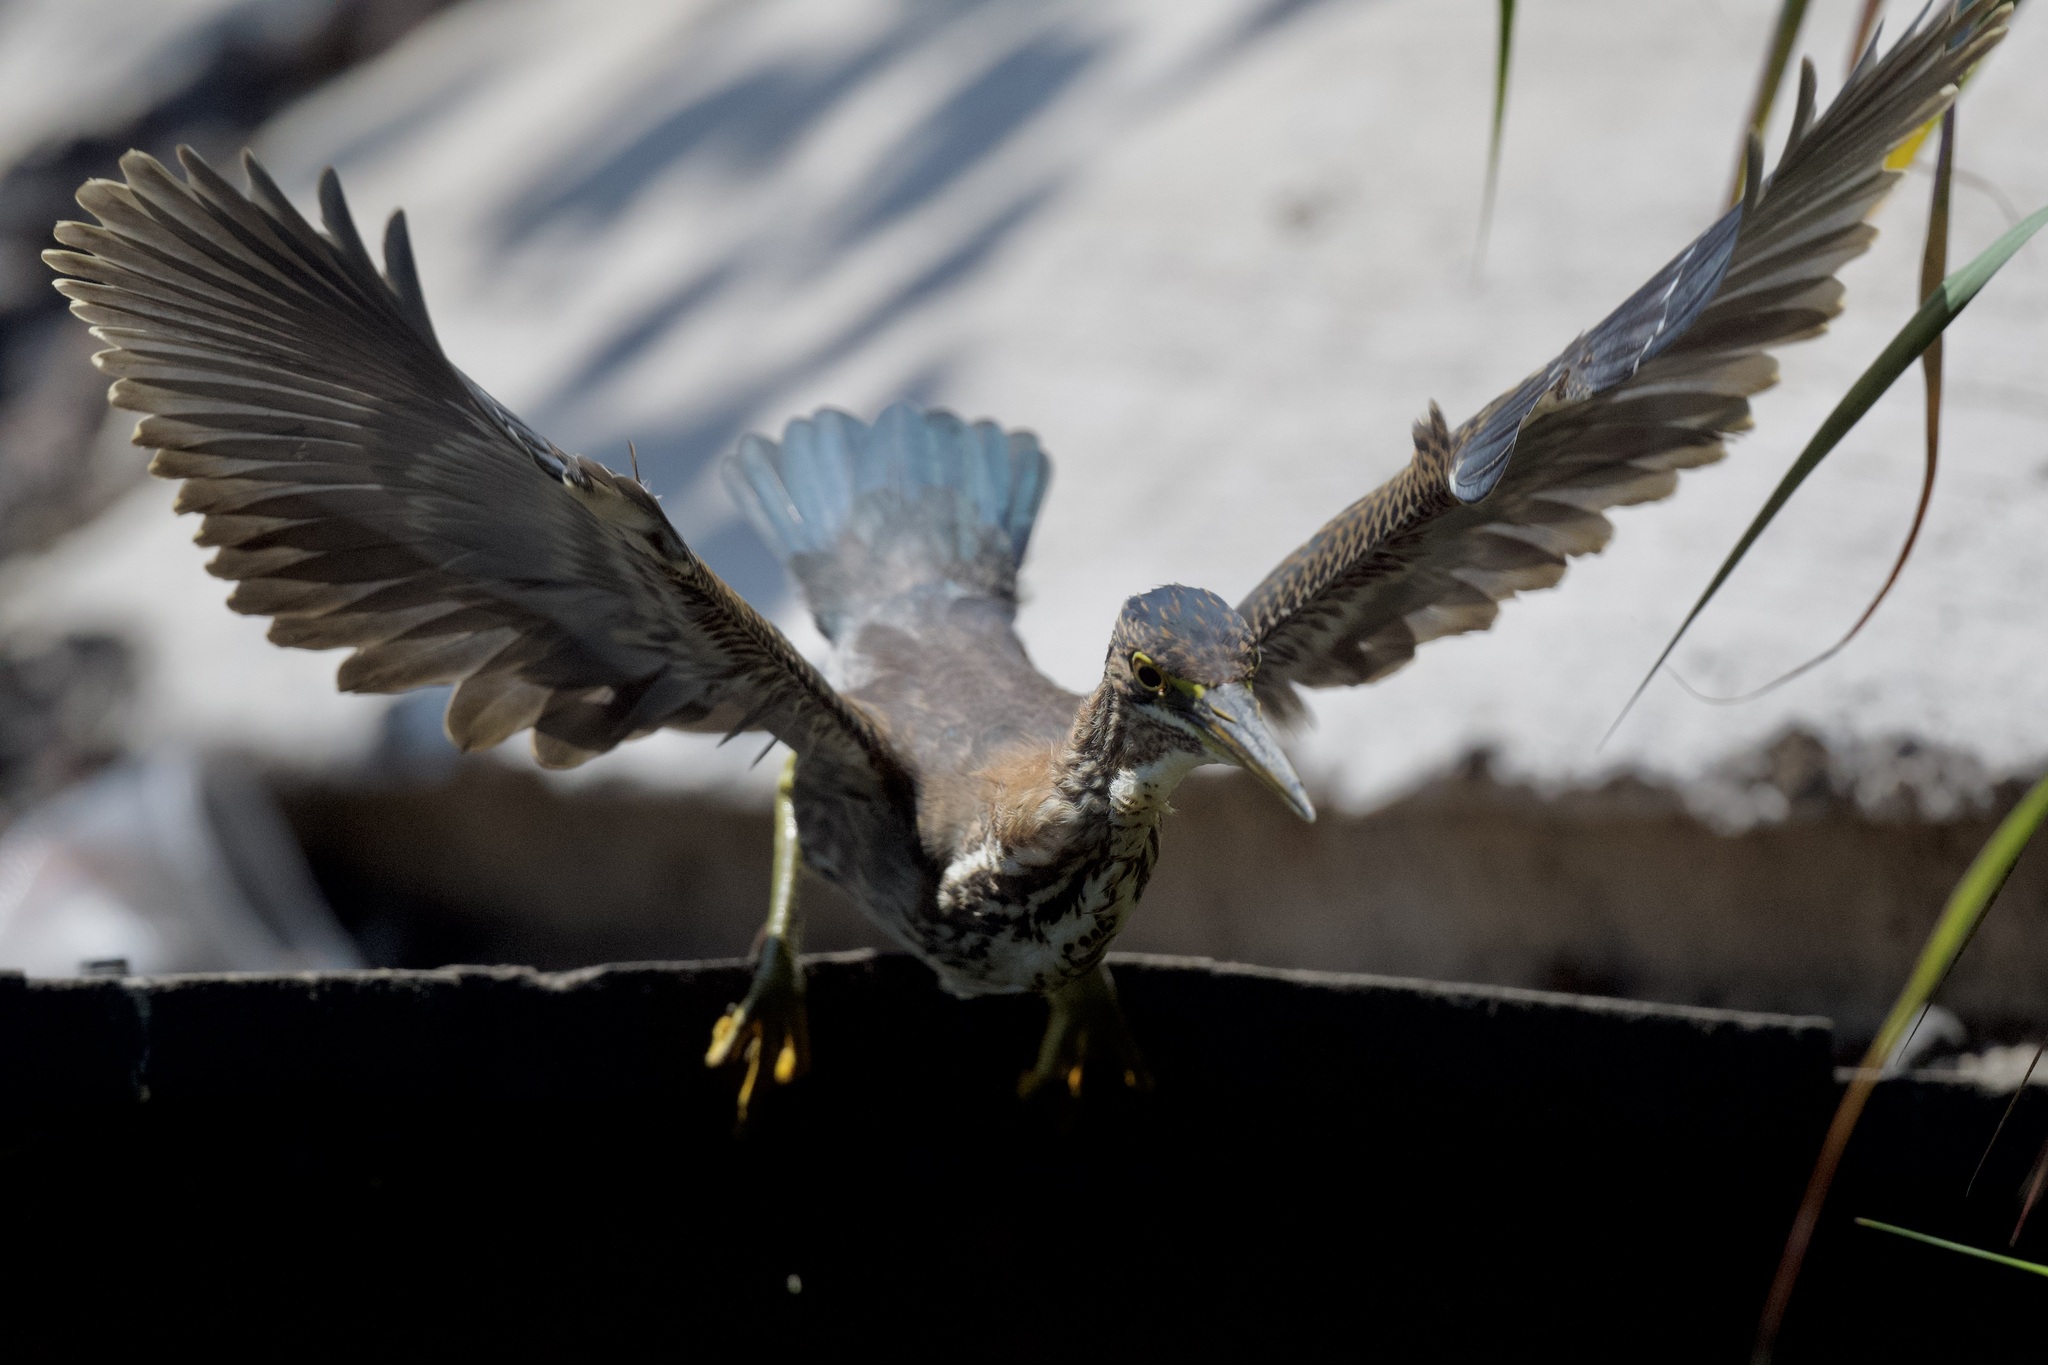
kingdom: Animalia
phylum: Chordata
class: Aves
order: Pelecaniformes
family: Ardeidae
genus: Butorides
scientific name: Butorides virescens
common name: Green heron
